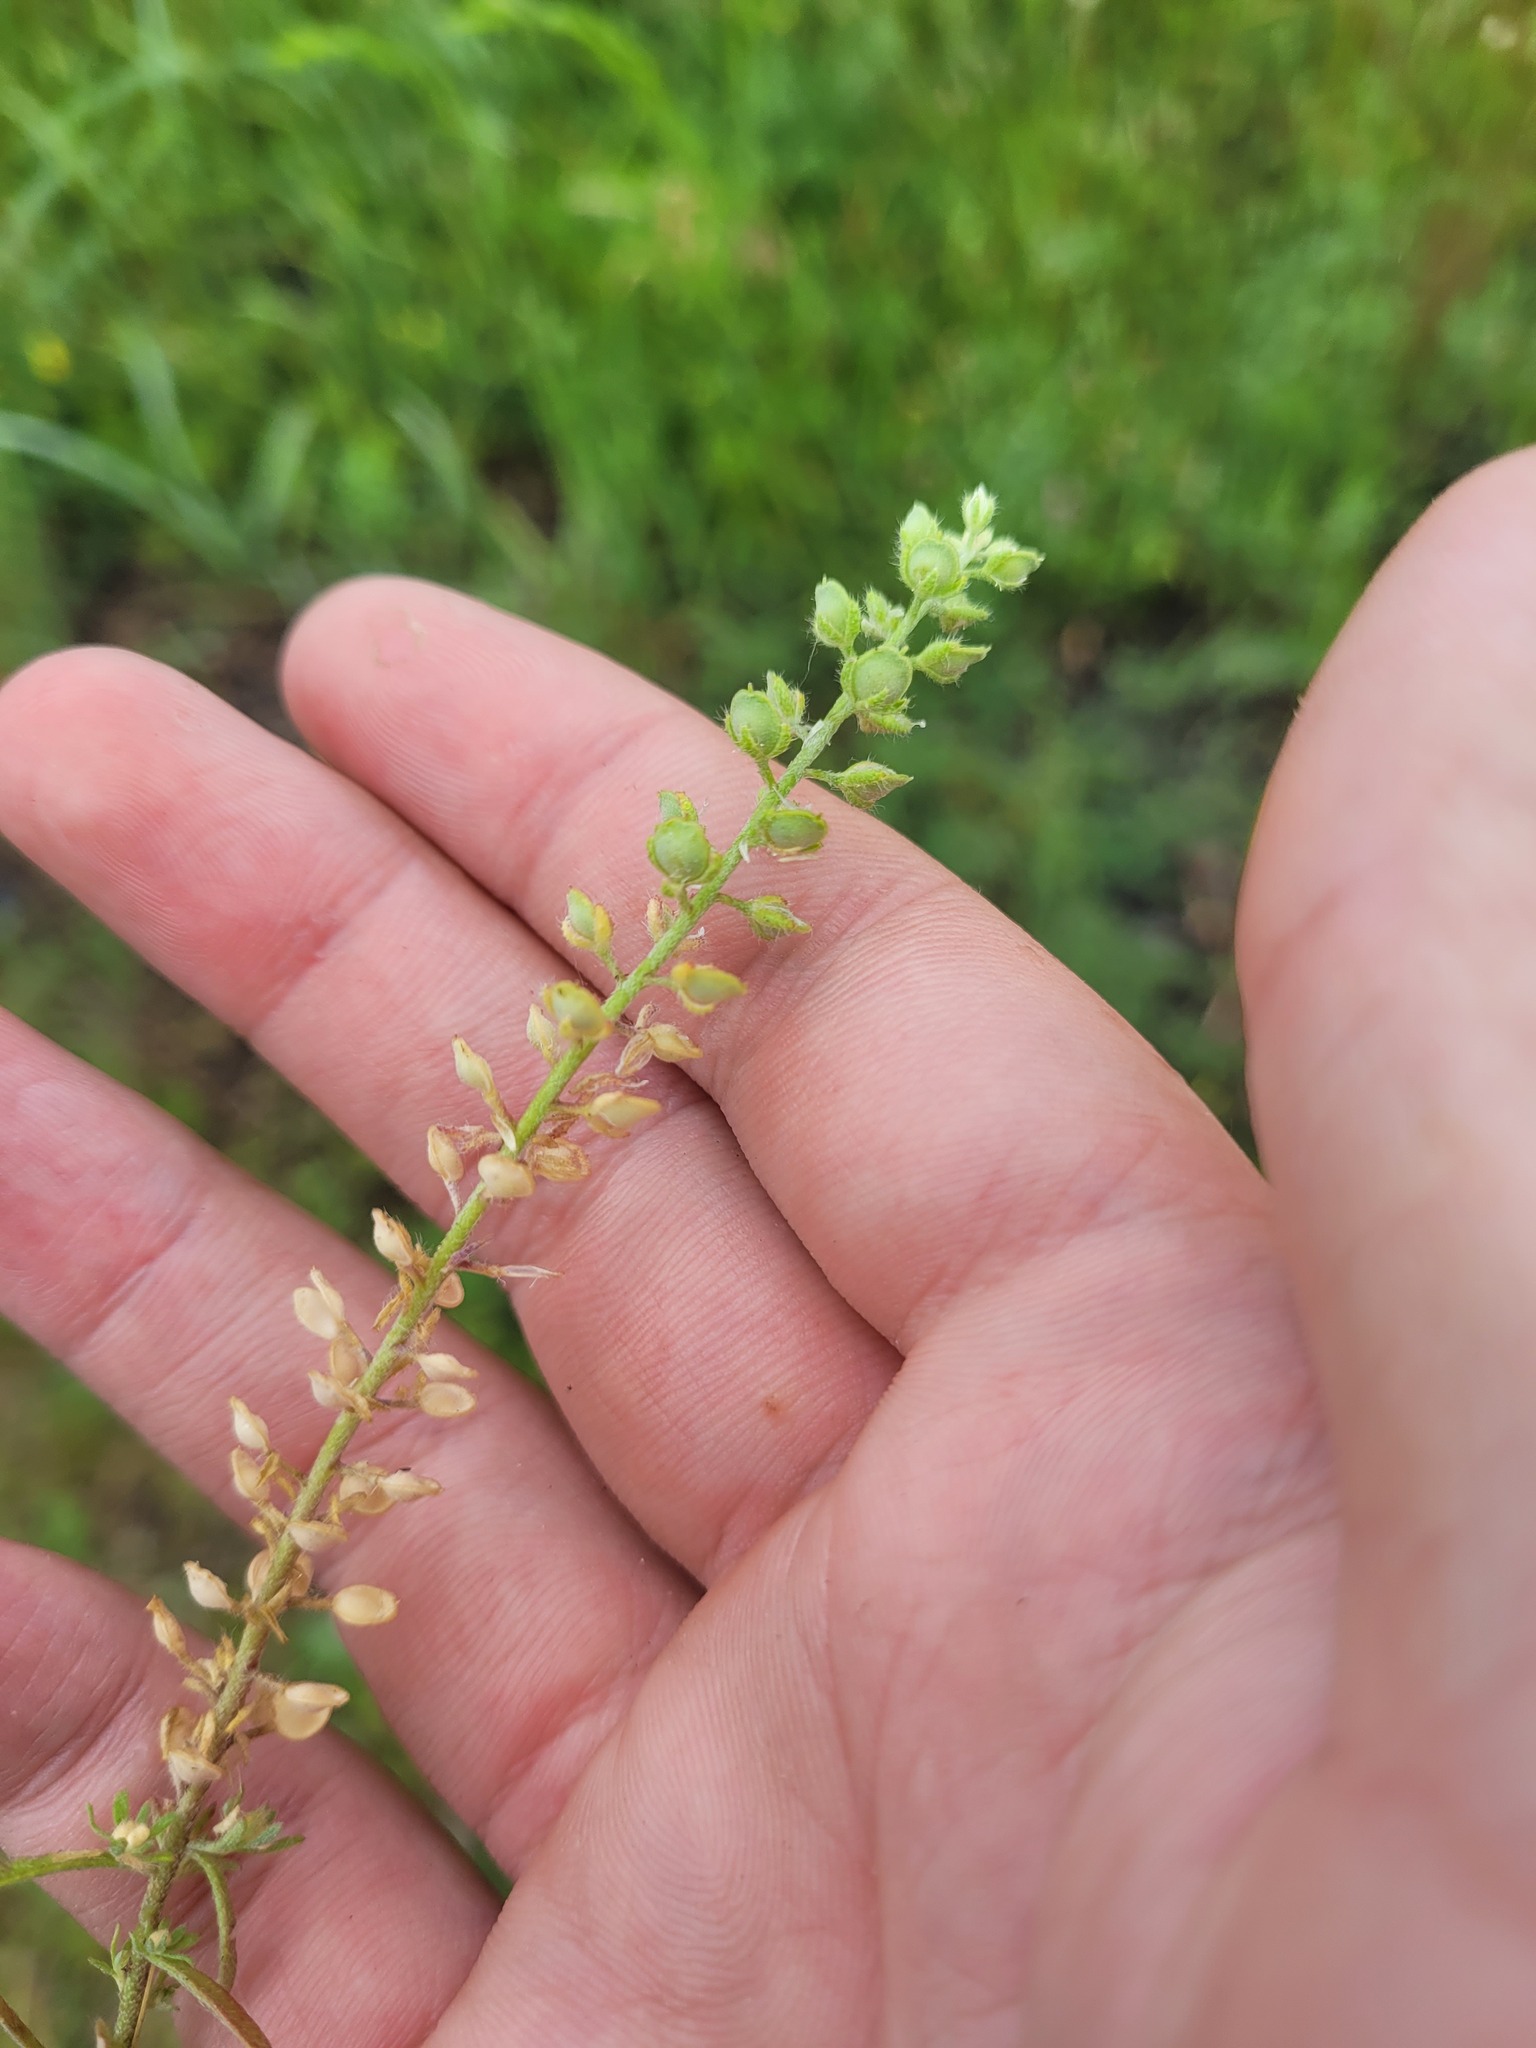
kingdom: Plantae
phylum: Tracheophyta
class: Magnoliopsida
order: Brassicales
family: Brassicaceae
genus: Alyssum
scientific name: Alyssum alyssoides
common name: Small alison
